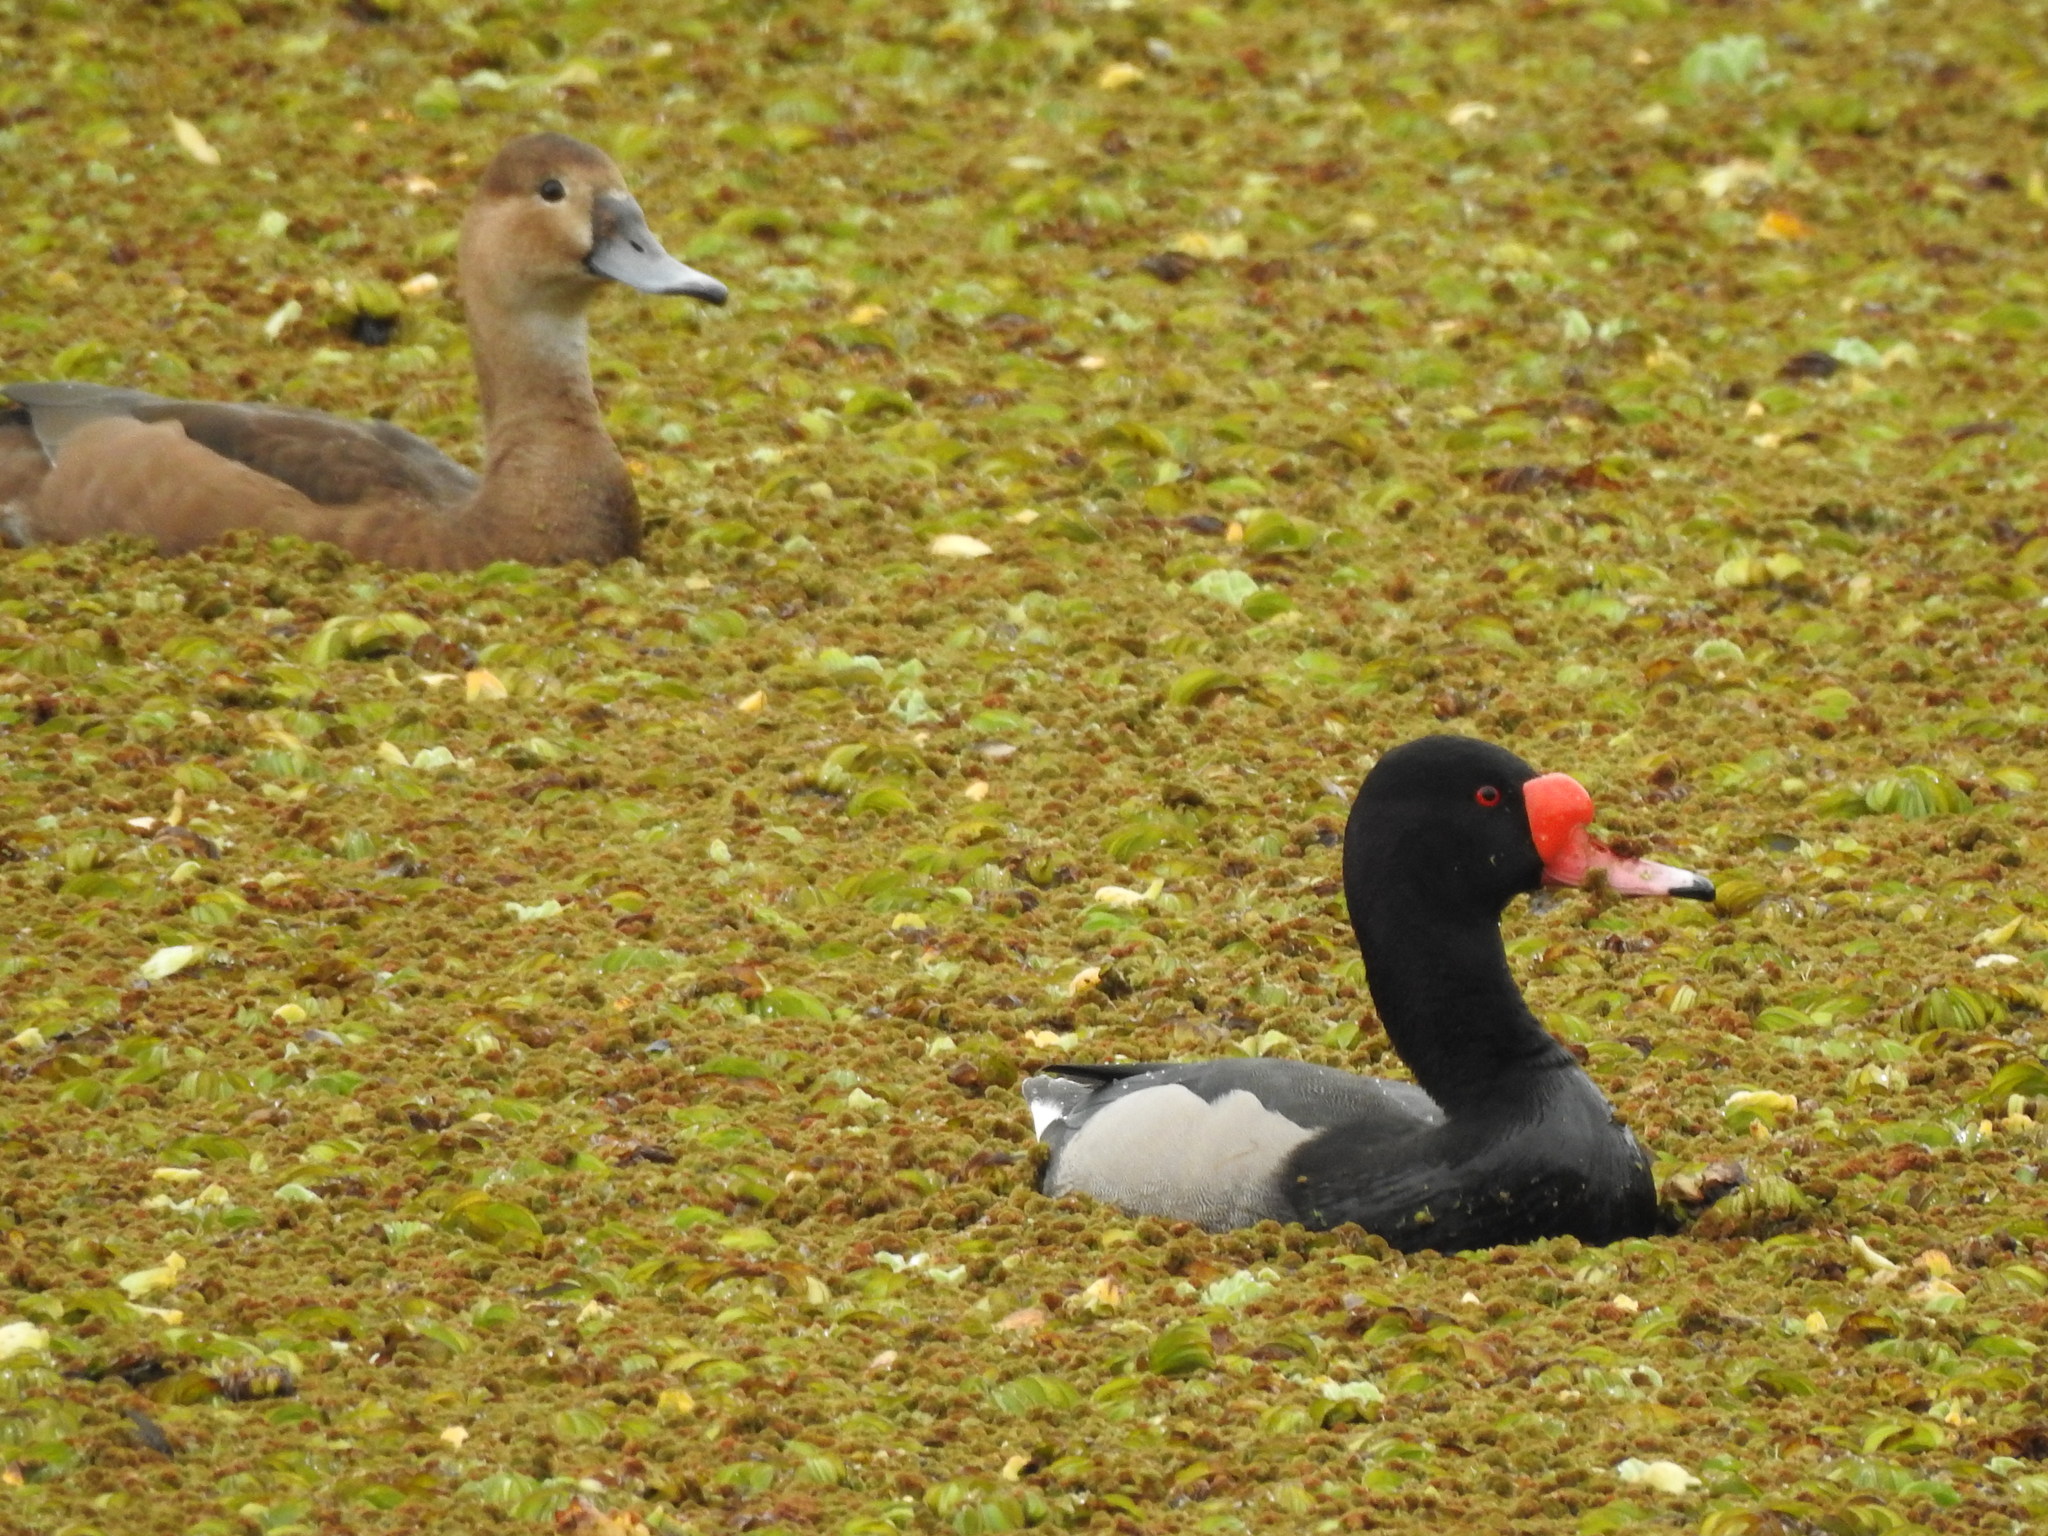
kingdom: Animalia
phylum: Chordata
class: Aves
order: Anseriformes
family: Anatidae
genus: Netta
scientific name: Netta peposaca
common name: Rosy-billed pochard
